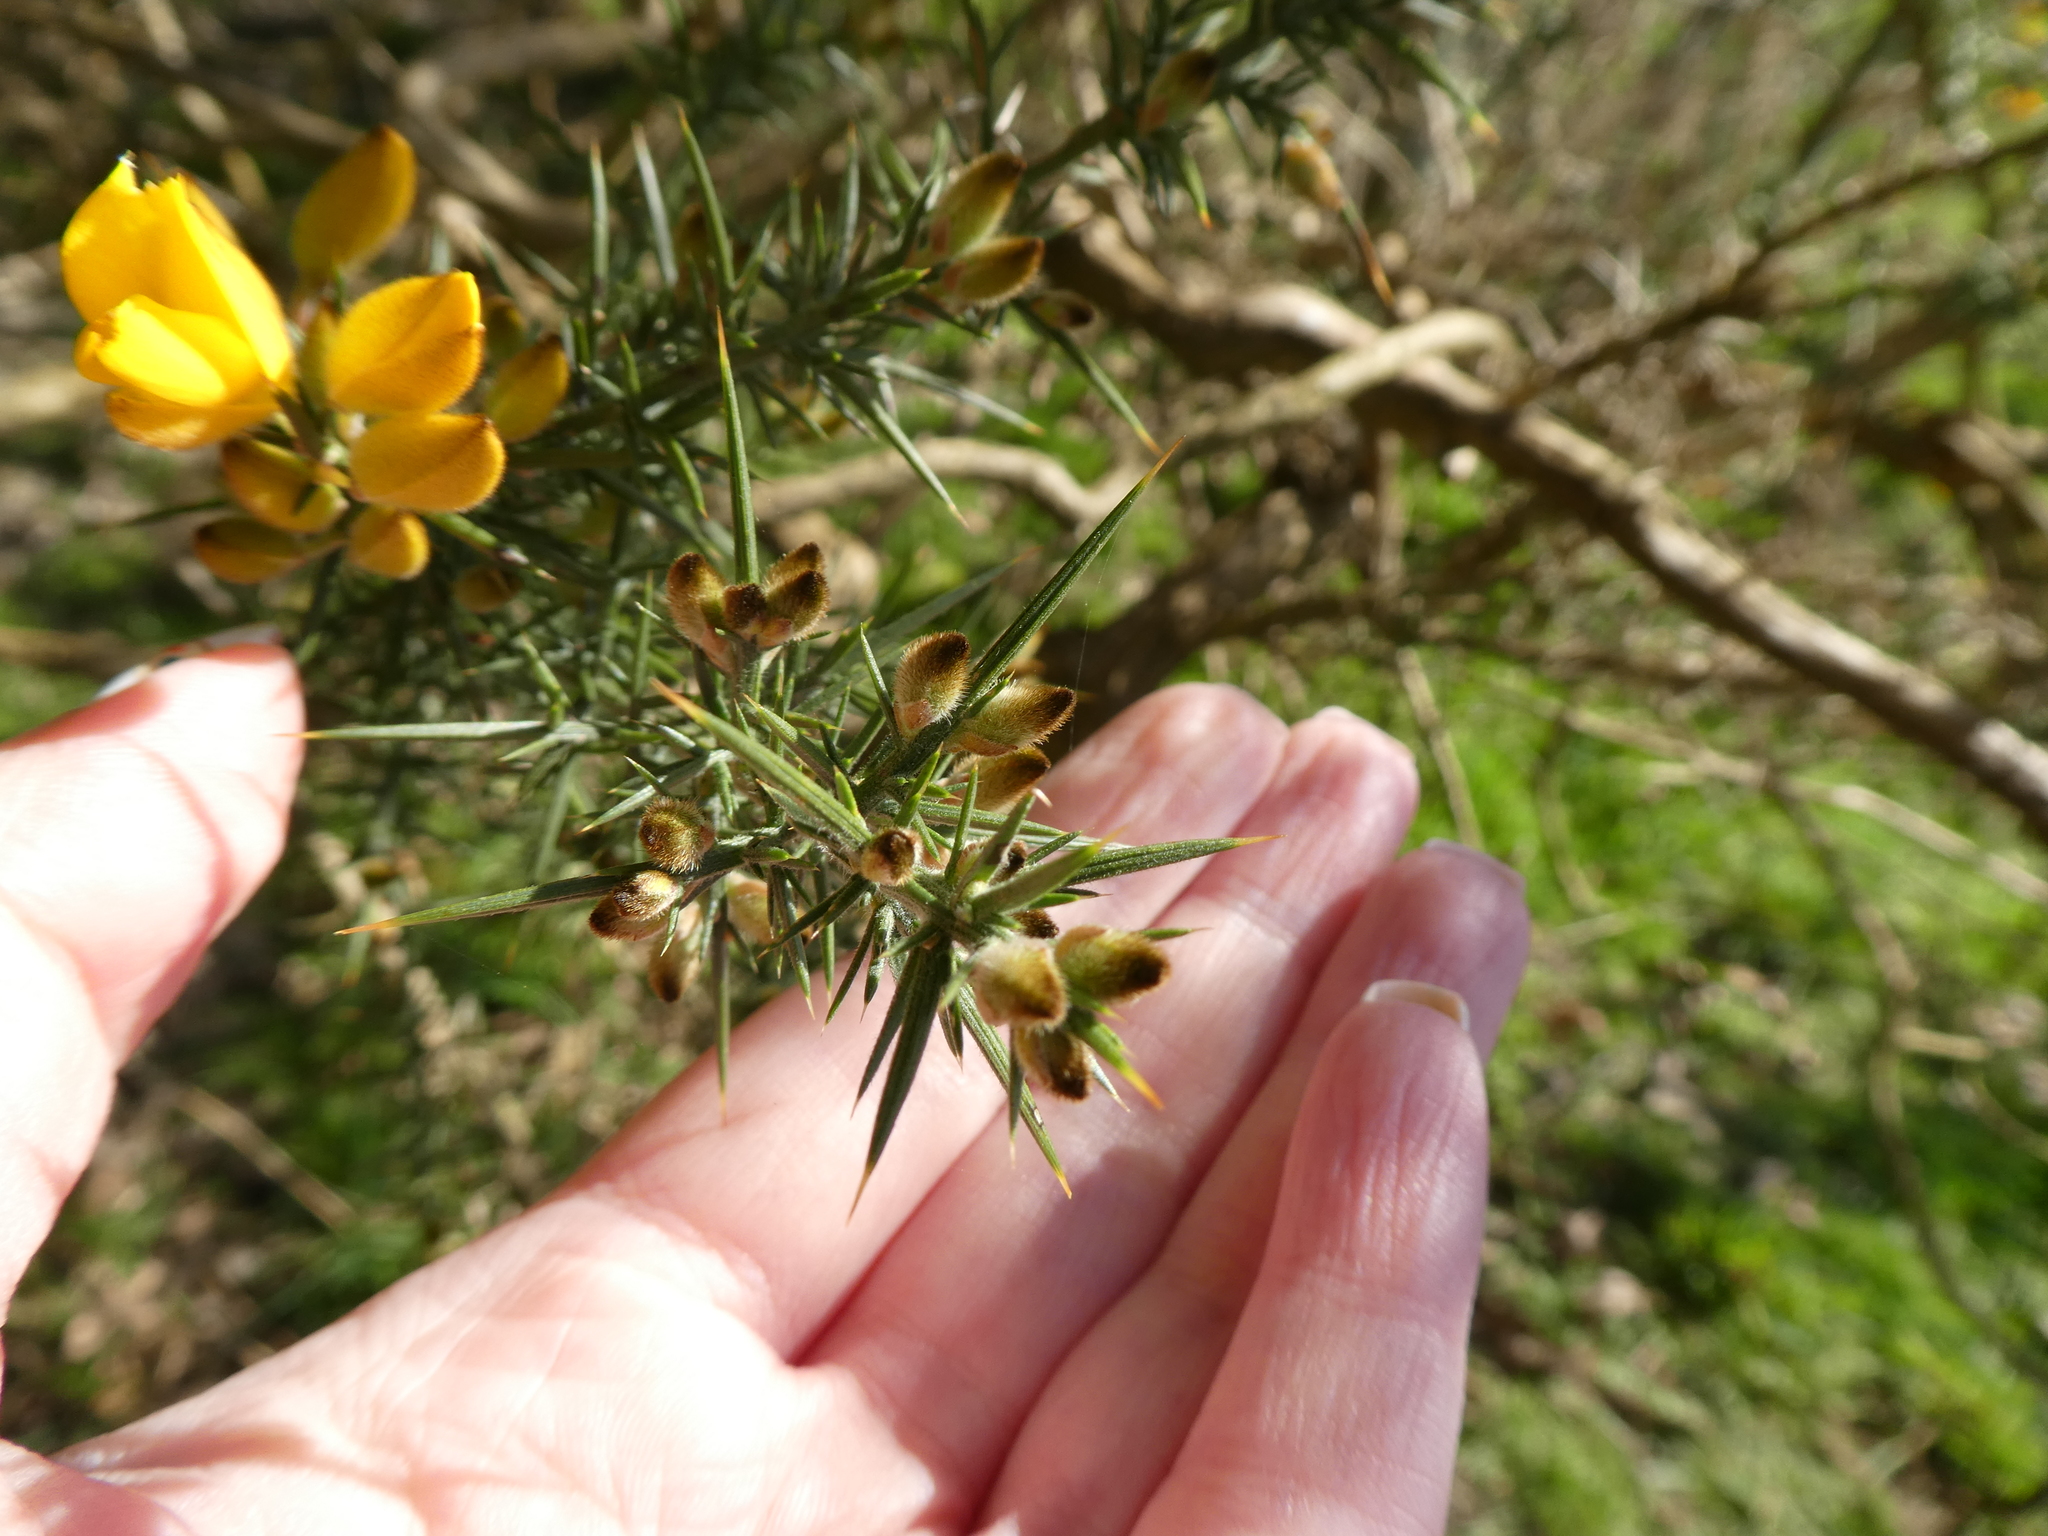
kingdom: Plantae
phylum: Tracheophyta
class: Magnoliopsida
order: Fabales
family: Fabaceae
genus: Ulex
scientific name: Ulex europaeus
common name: Common gorse
